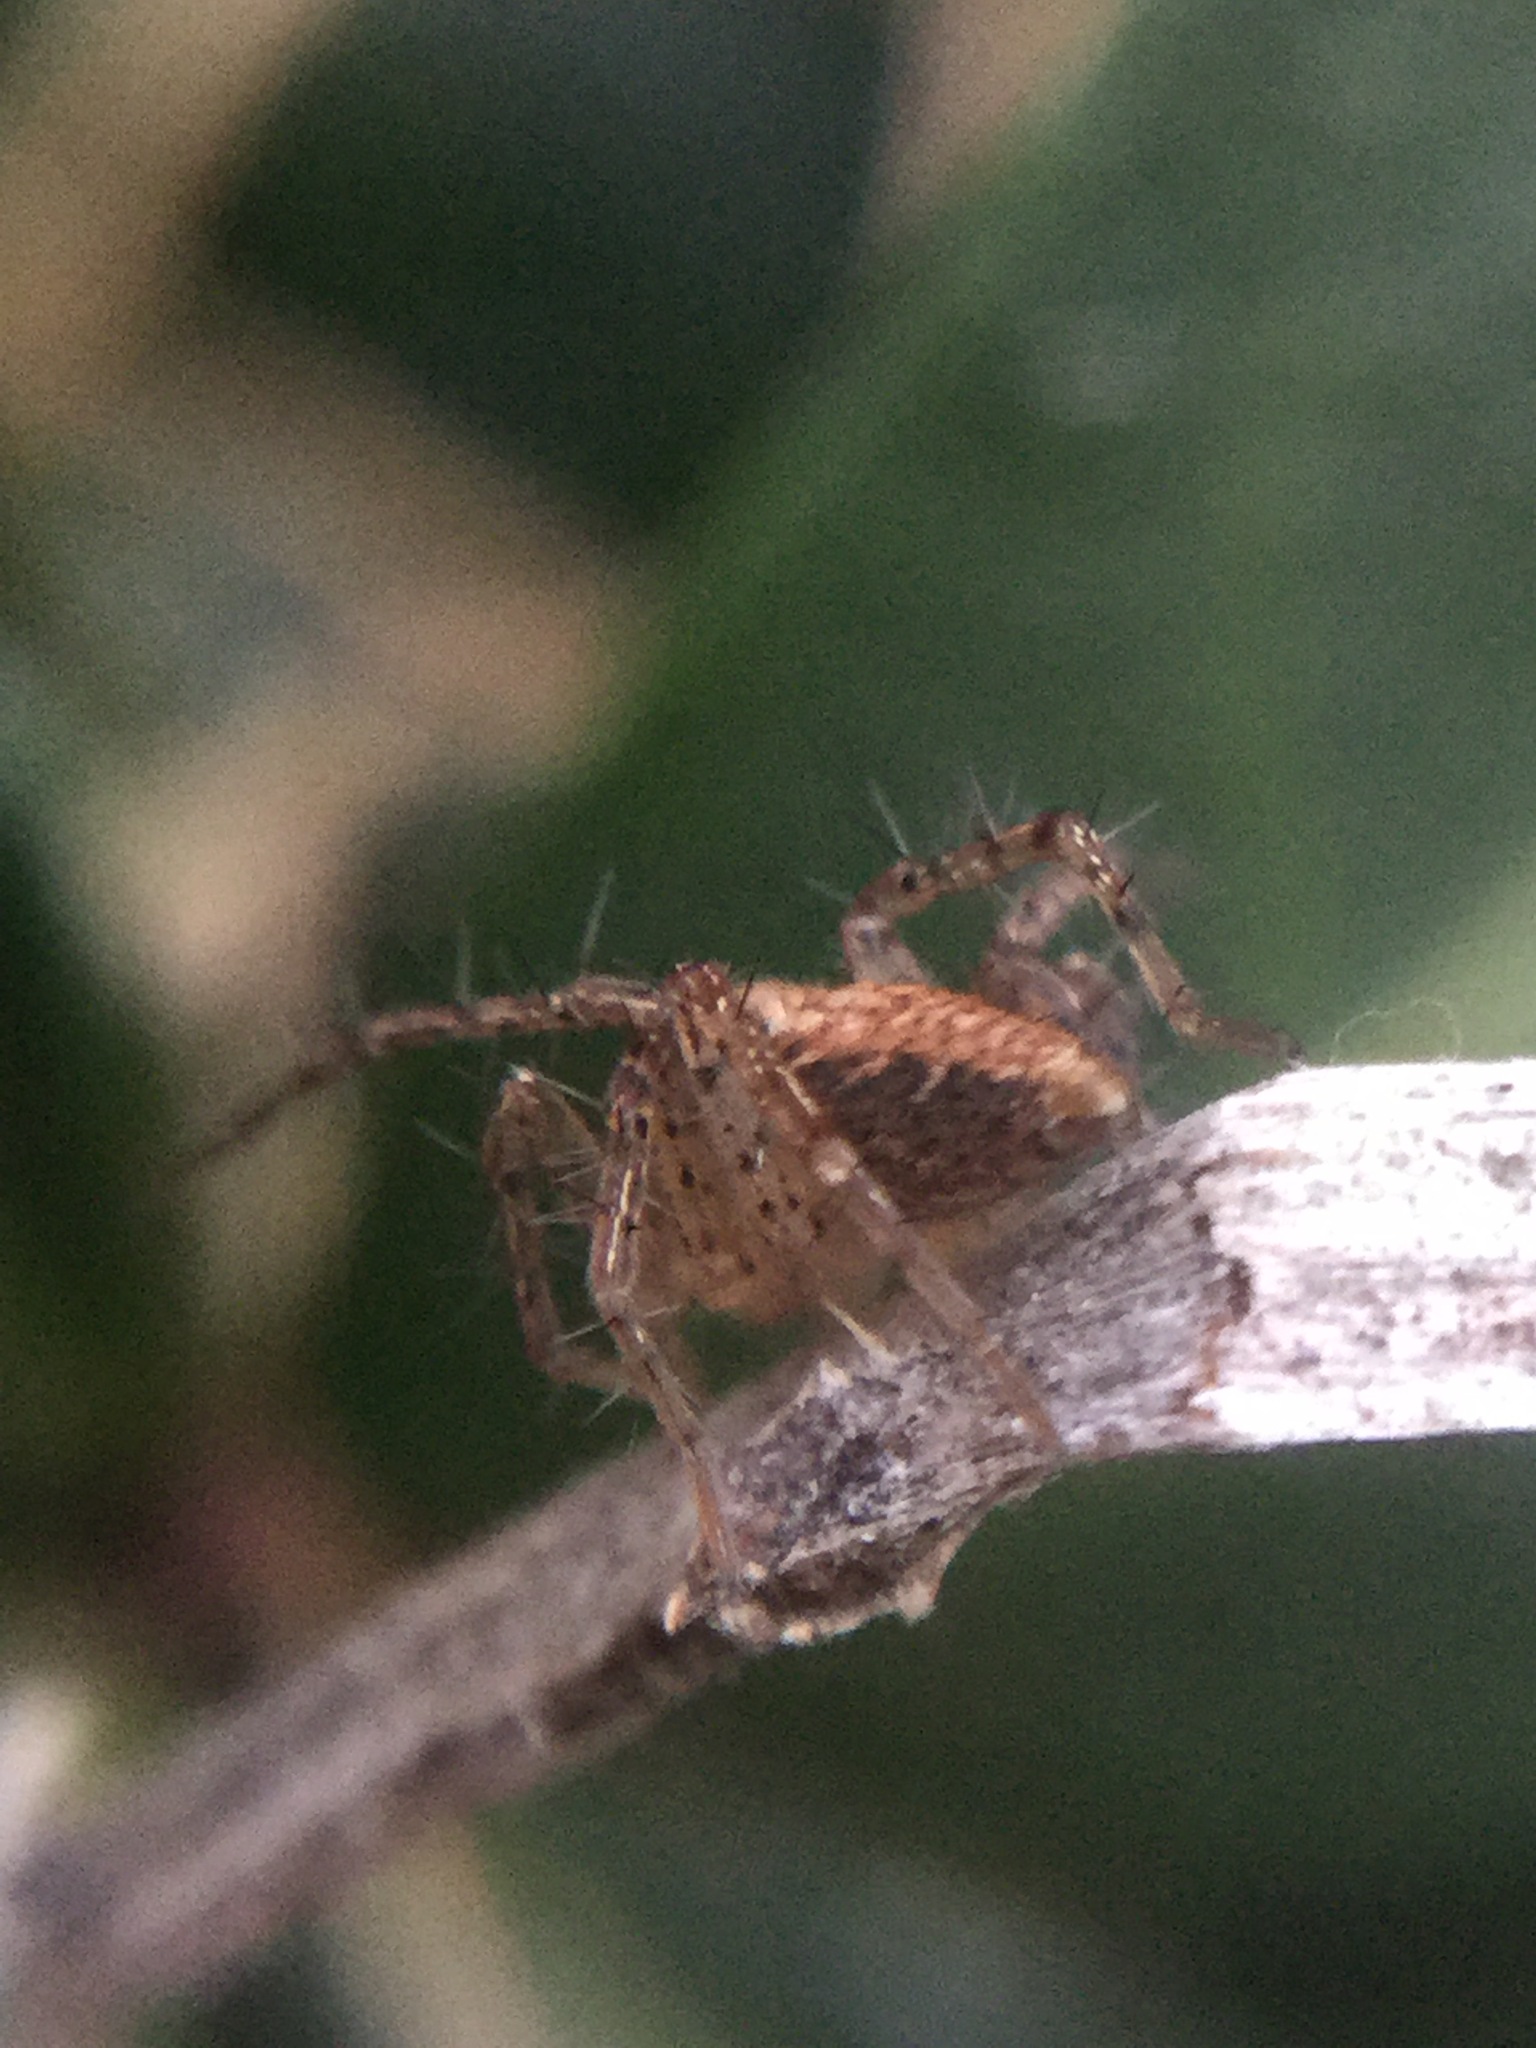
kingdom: Animalia
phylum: Arthropoda
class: Arachnida
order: Araneae
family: Oxyopidae
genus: Oxyopes
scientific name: Oxyopes aglossus
